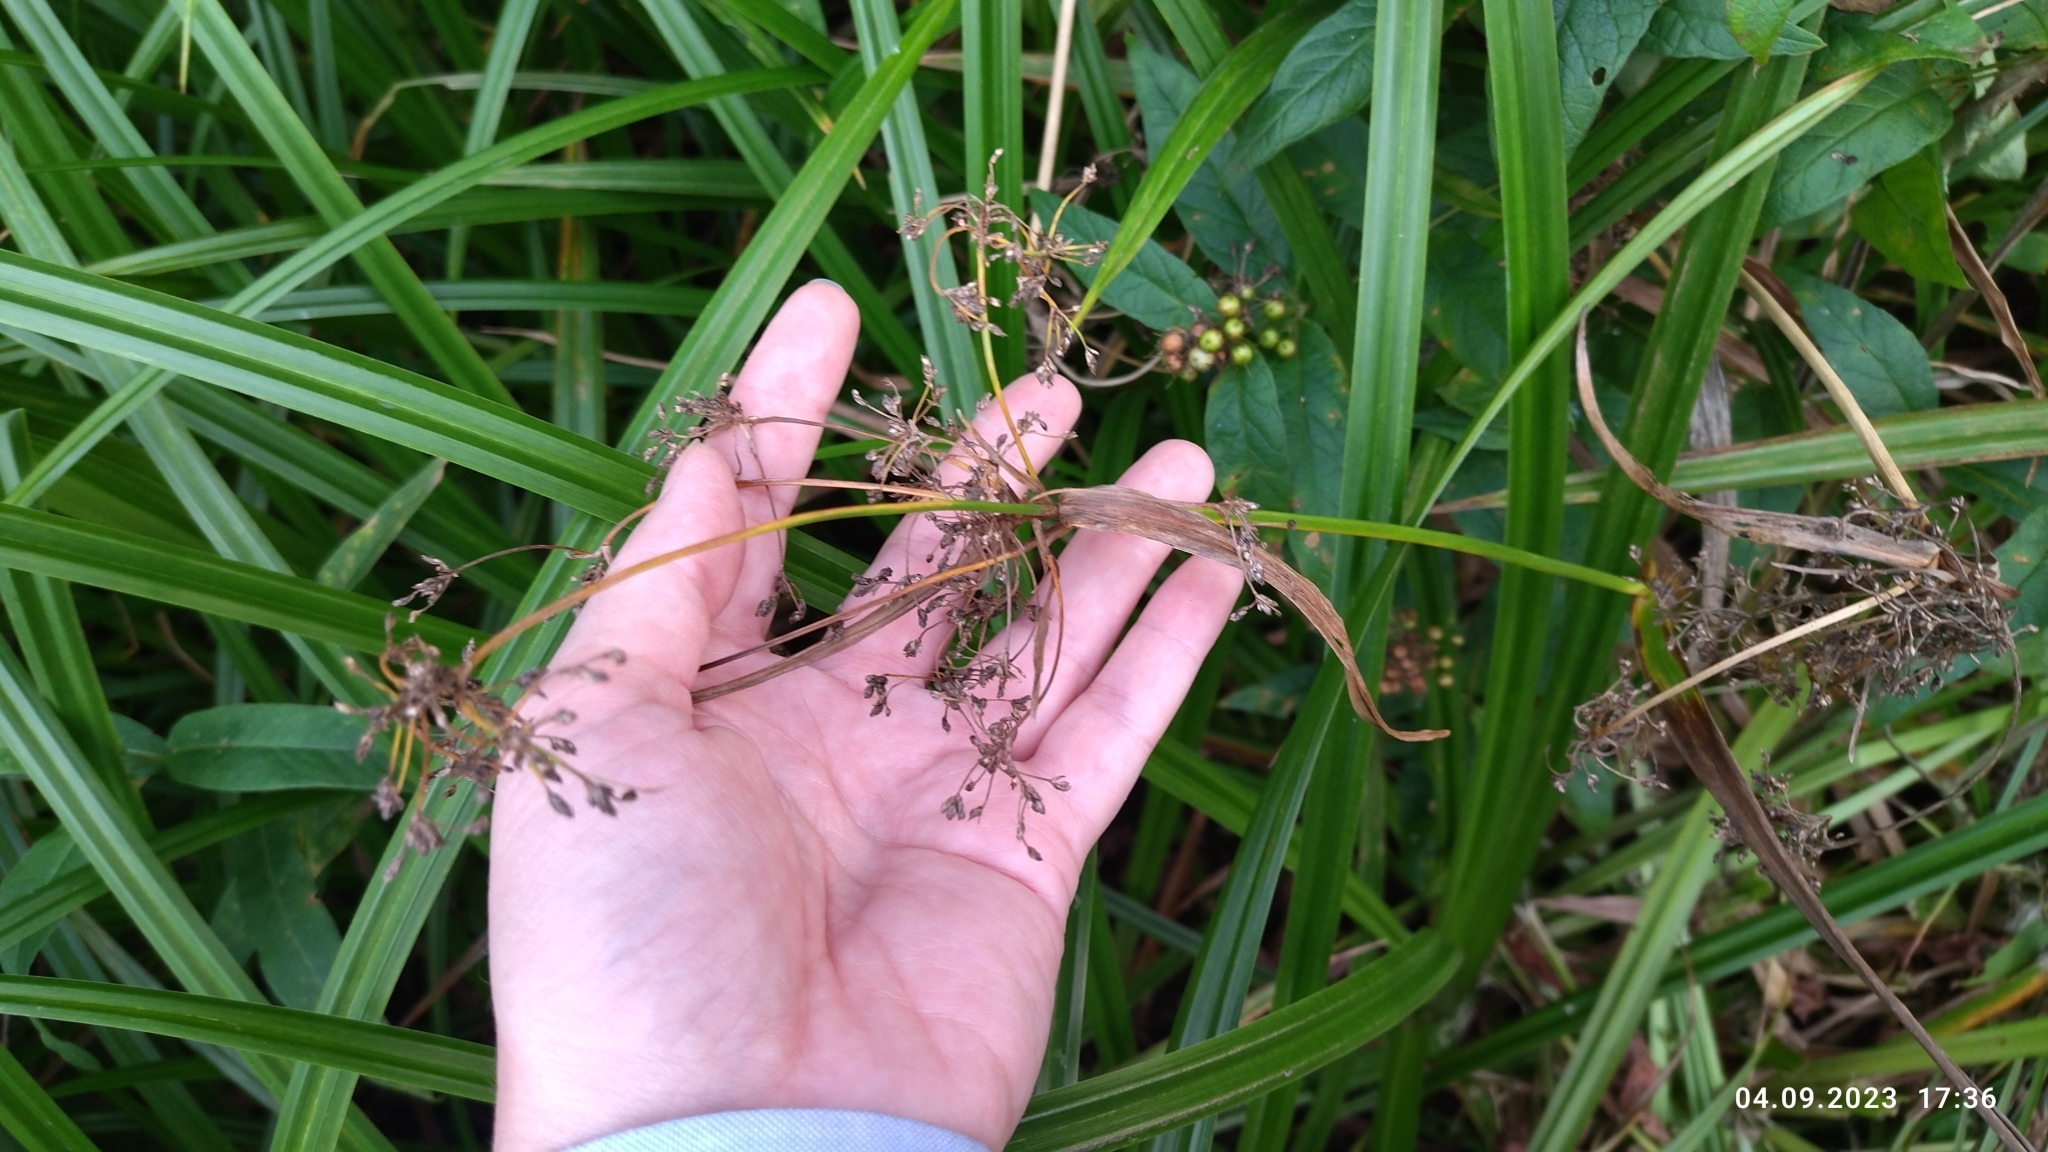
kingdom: Plantae
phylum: Tracheophyta
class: Liliopsida
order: Poales
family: Cyperaceae
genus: Scirpus
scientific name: Scirpus sylvaticus
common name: Wood club-rush
